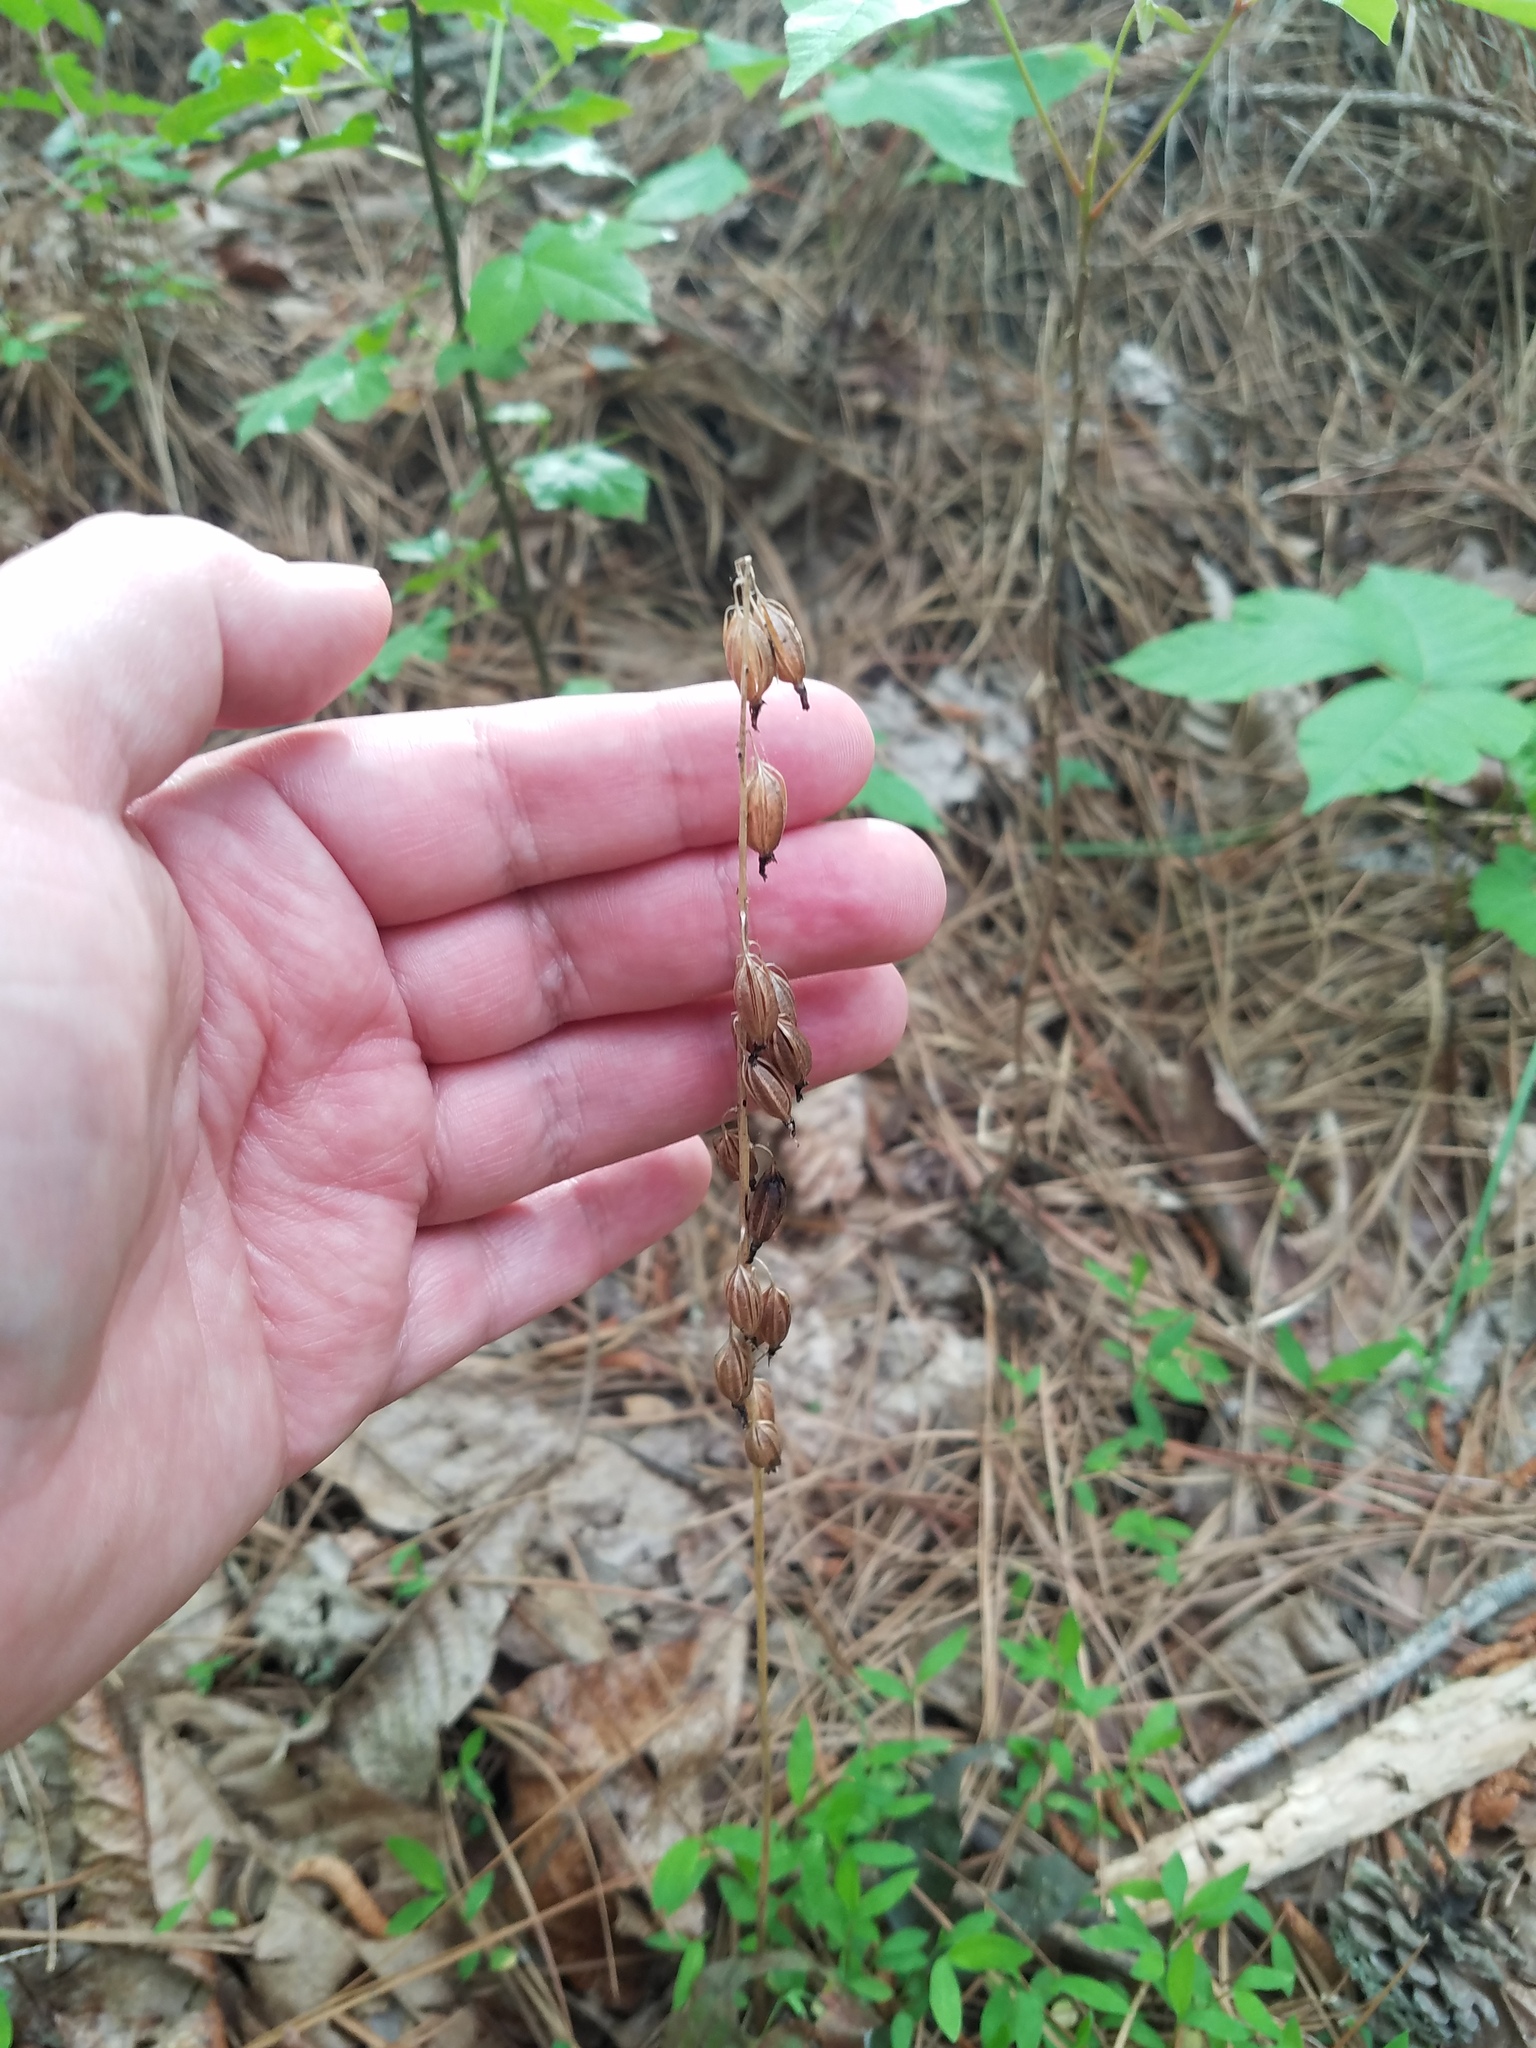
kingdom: Plantae
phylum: Tracheophyta
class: Liliopsida
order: Asparagales
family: Orchidaceae
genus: Tipularia
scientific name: Tipularia discolor
